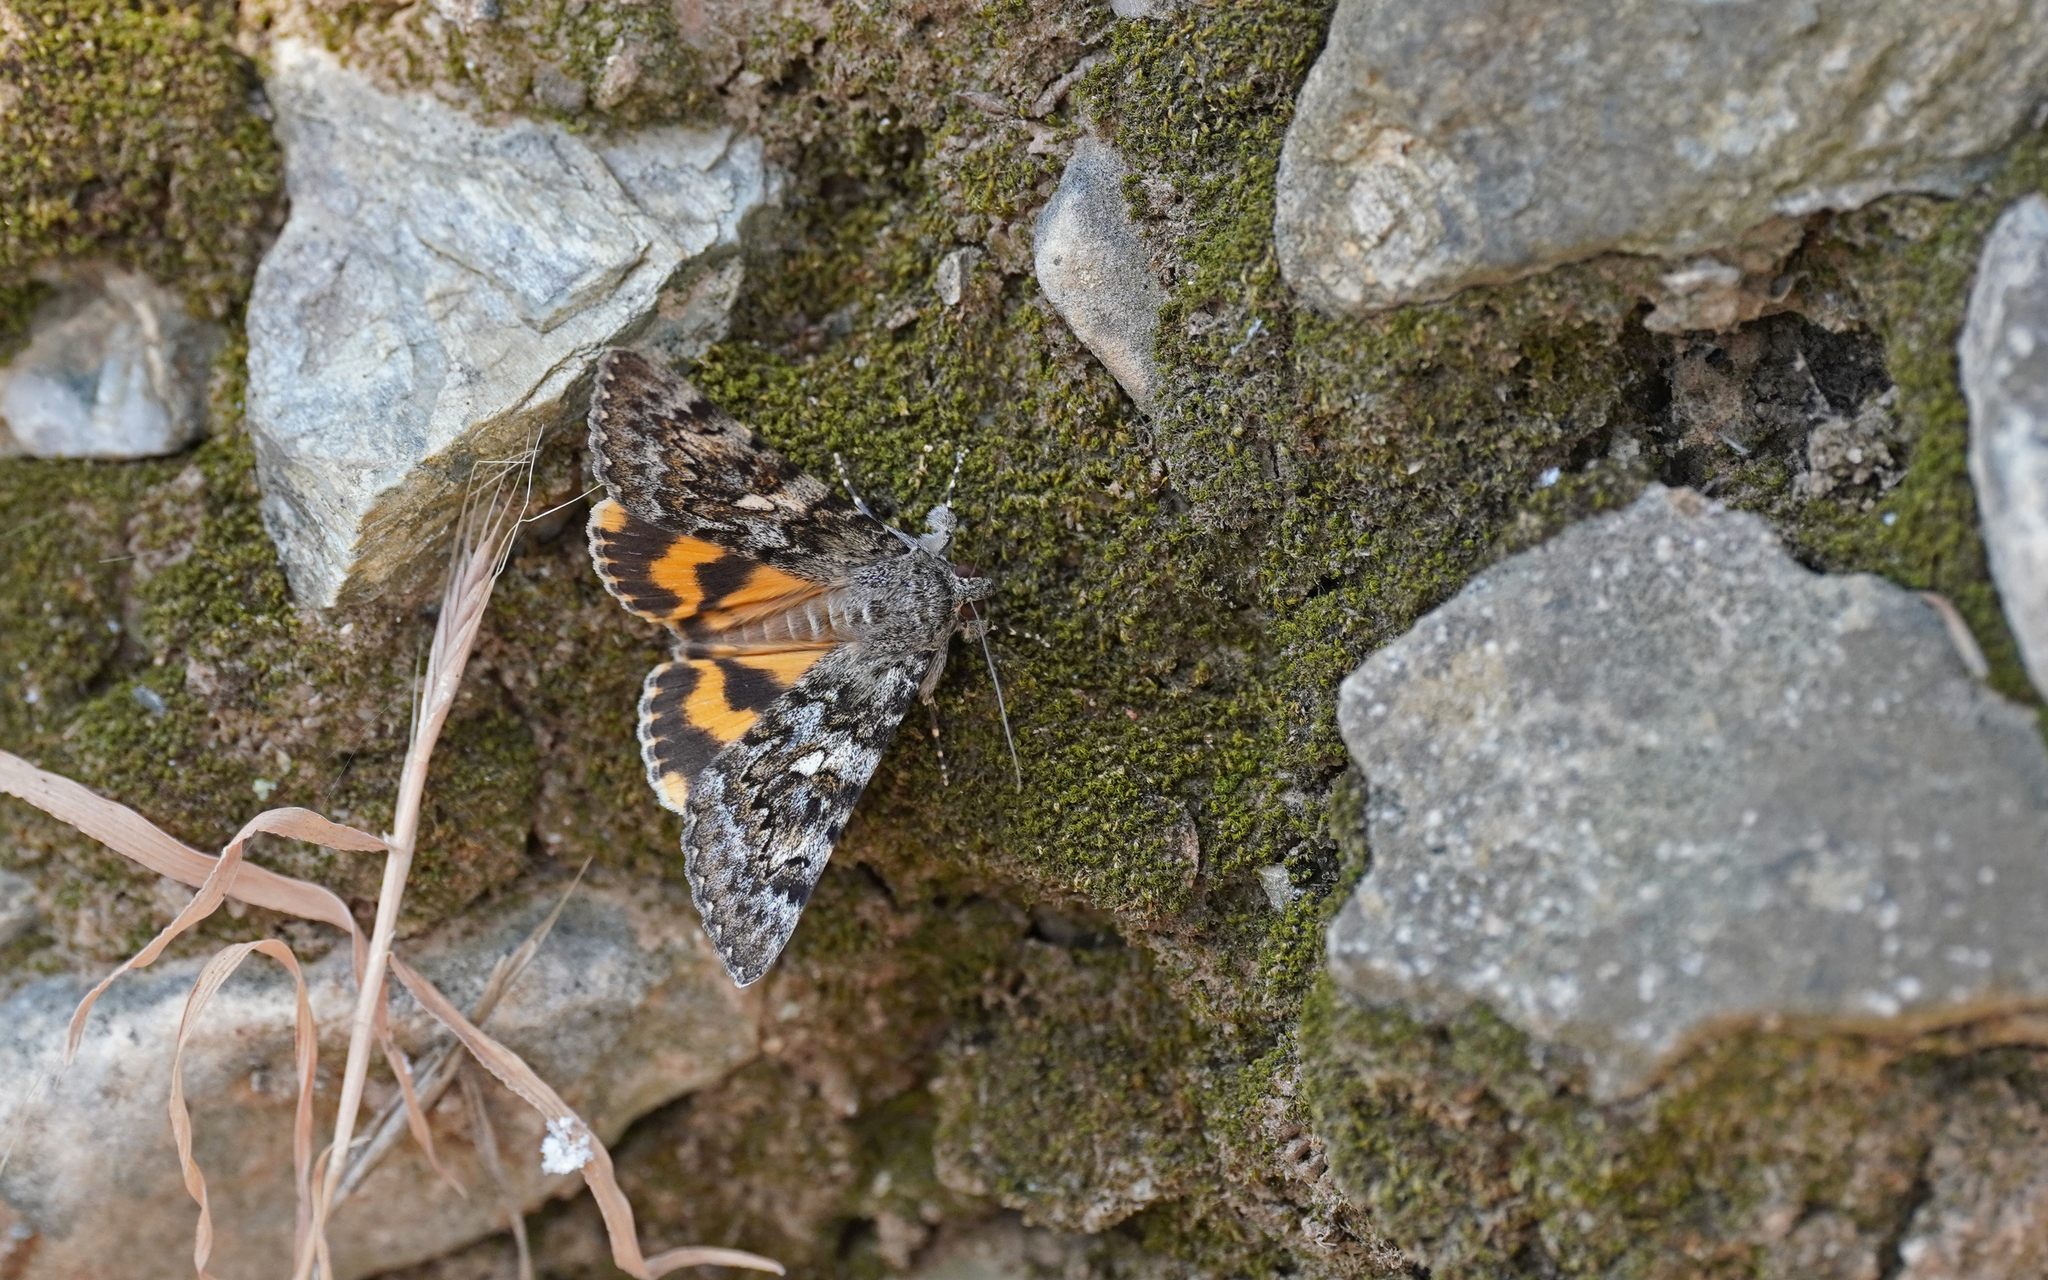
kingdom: Animalia
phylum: Arthropoda
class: Insecta
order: Lepidoptera
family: Erebidae
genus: Catocala
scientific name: Catocala nymphaea
